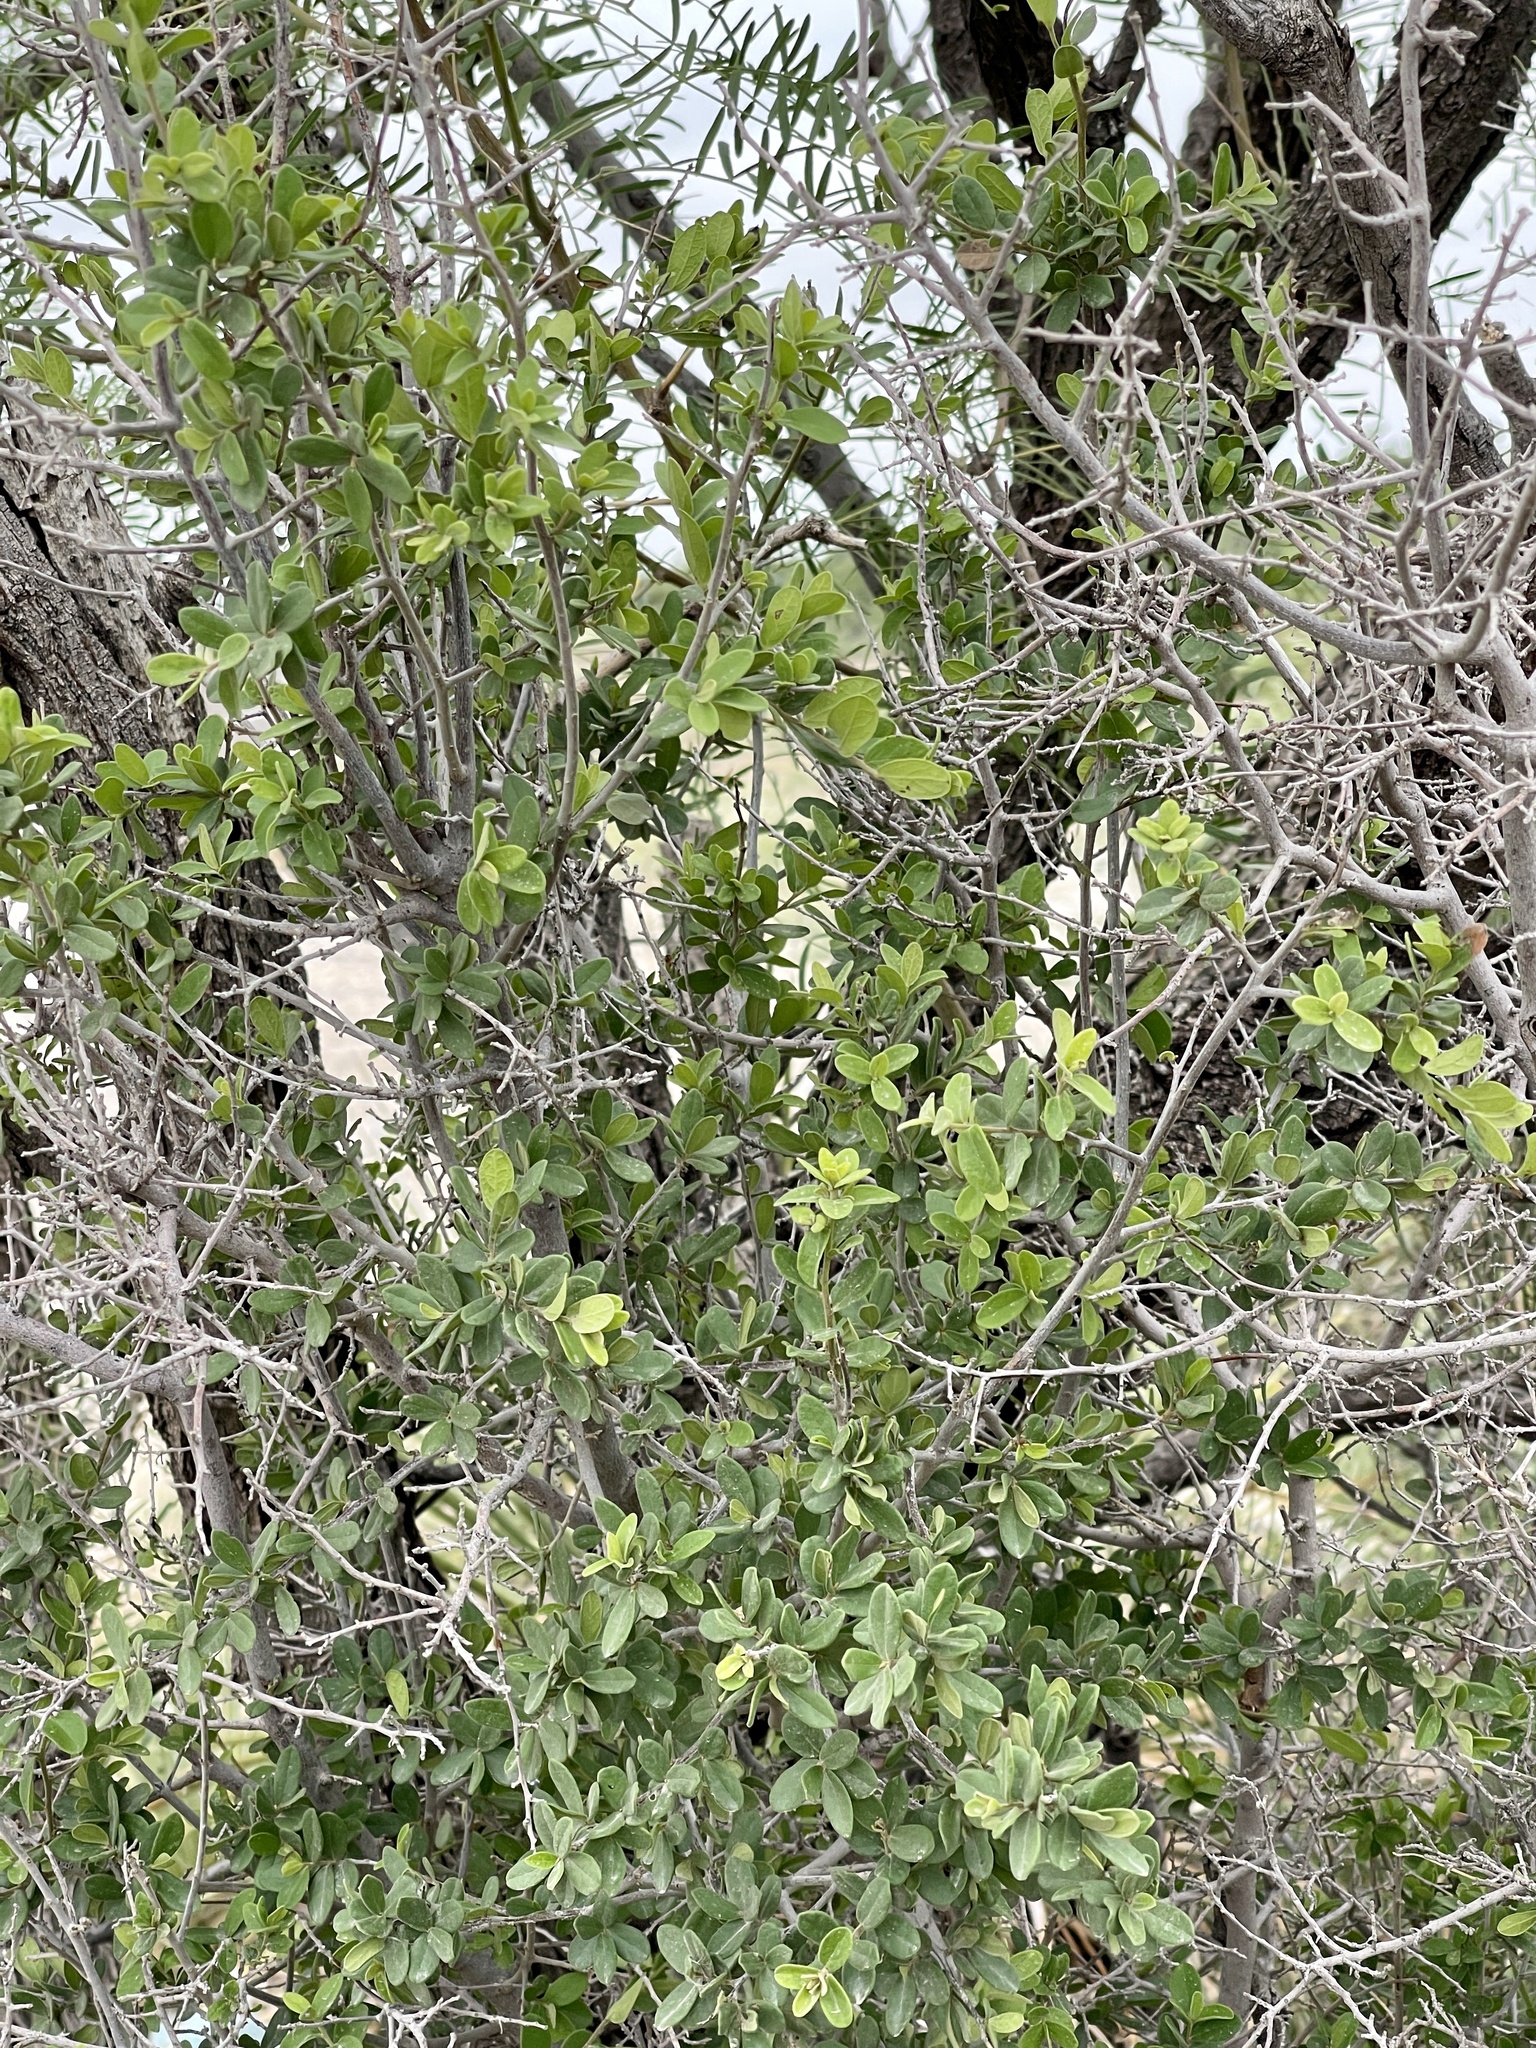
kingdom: Plantae
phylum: Tracheophyta
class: Magnoliopsida
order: Ericales
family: Ebenaceae
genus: Diospyros
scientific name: Diospyros texana
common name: Texas persimmon
